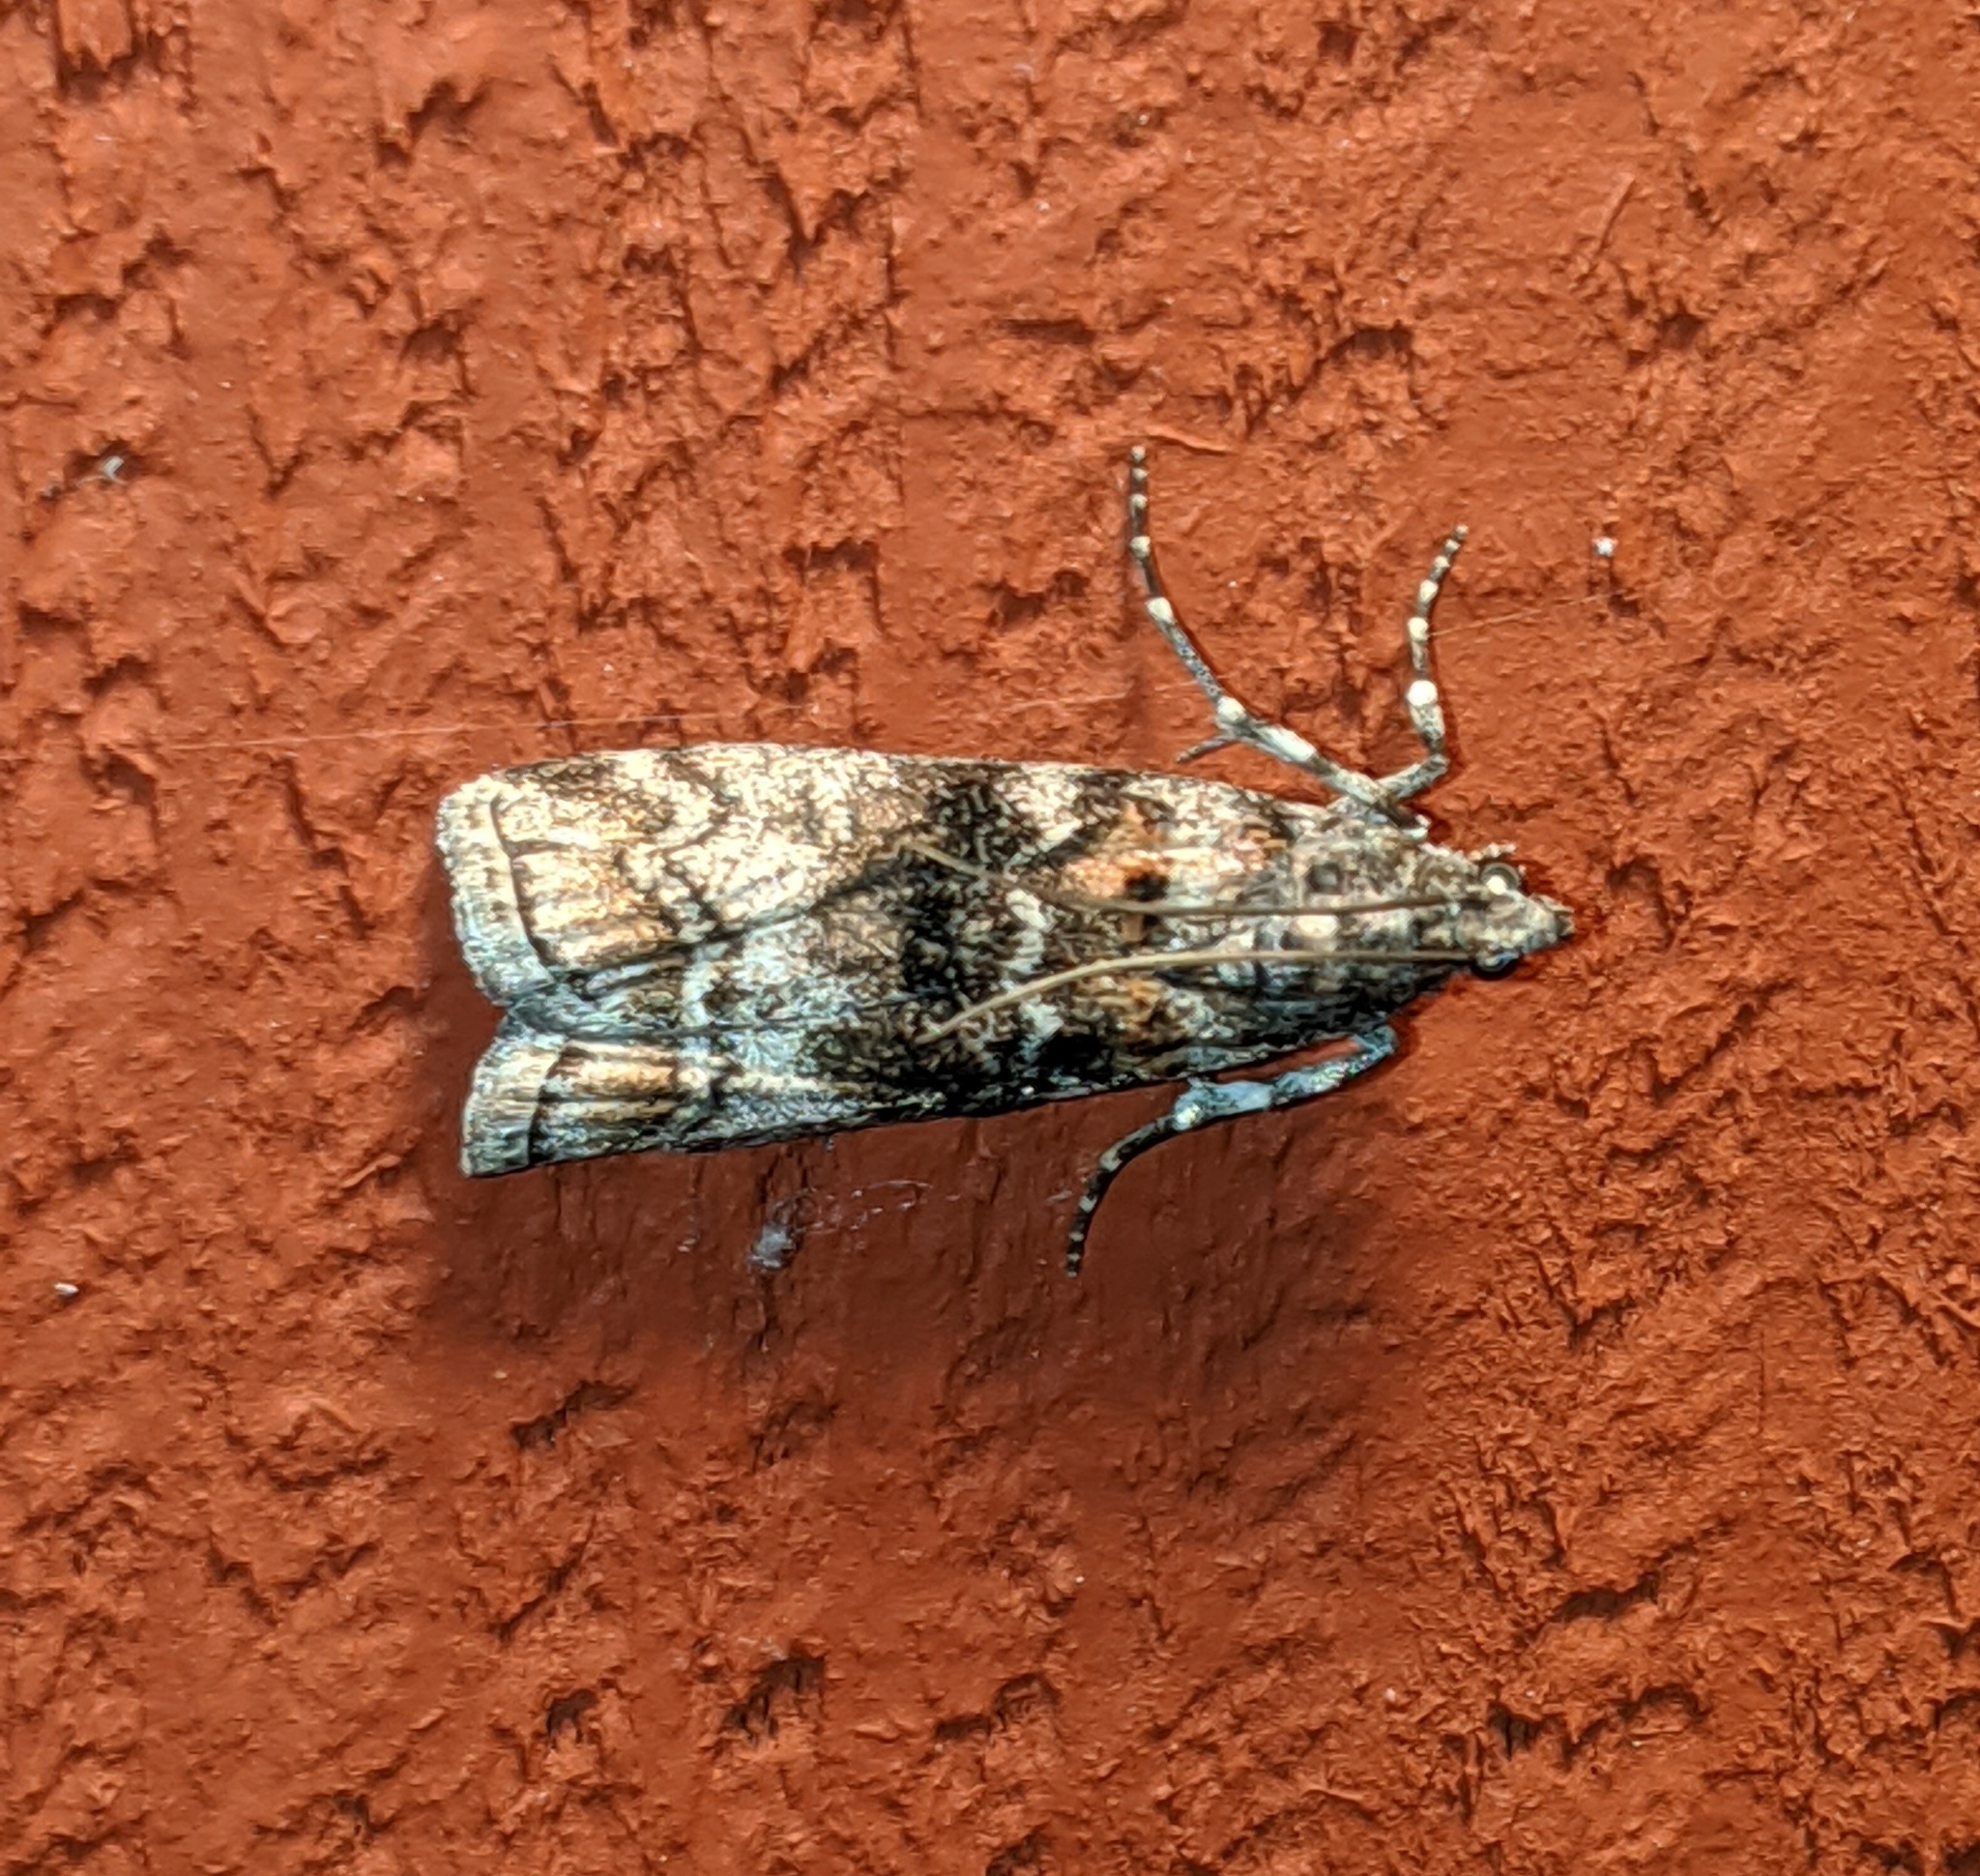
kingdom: Animalia
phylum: Arthropoda
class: Insecta
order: Lepidoptera
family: Pyralidae
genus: Dioryctria
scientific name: Dioryctria banksiella
